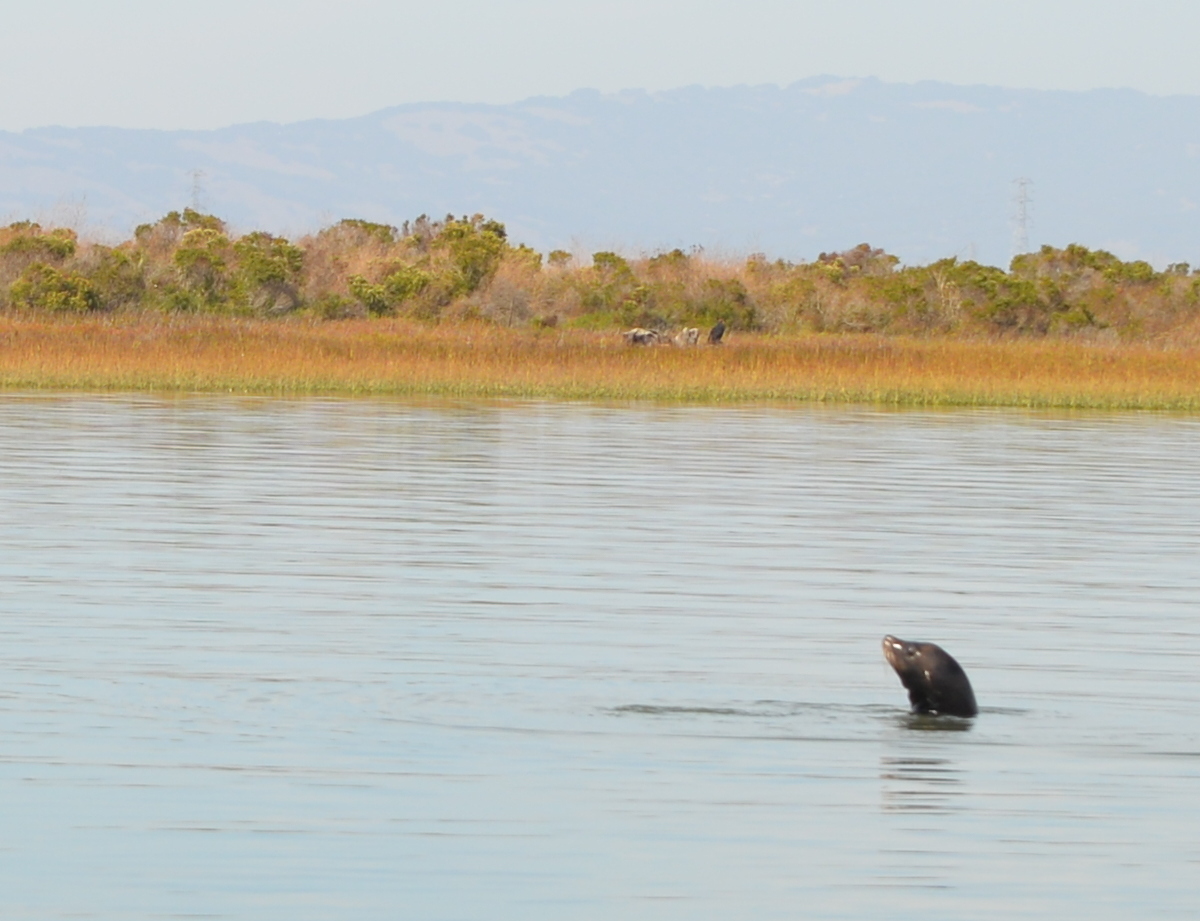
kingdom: Animalia
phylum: Chordata
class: Mammalia
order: Carnivora
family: Otariidae
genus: Zalophus
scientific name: Zalophus californianus
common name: California sea lion
